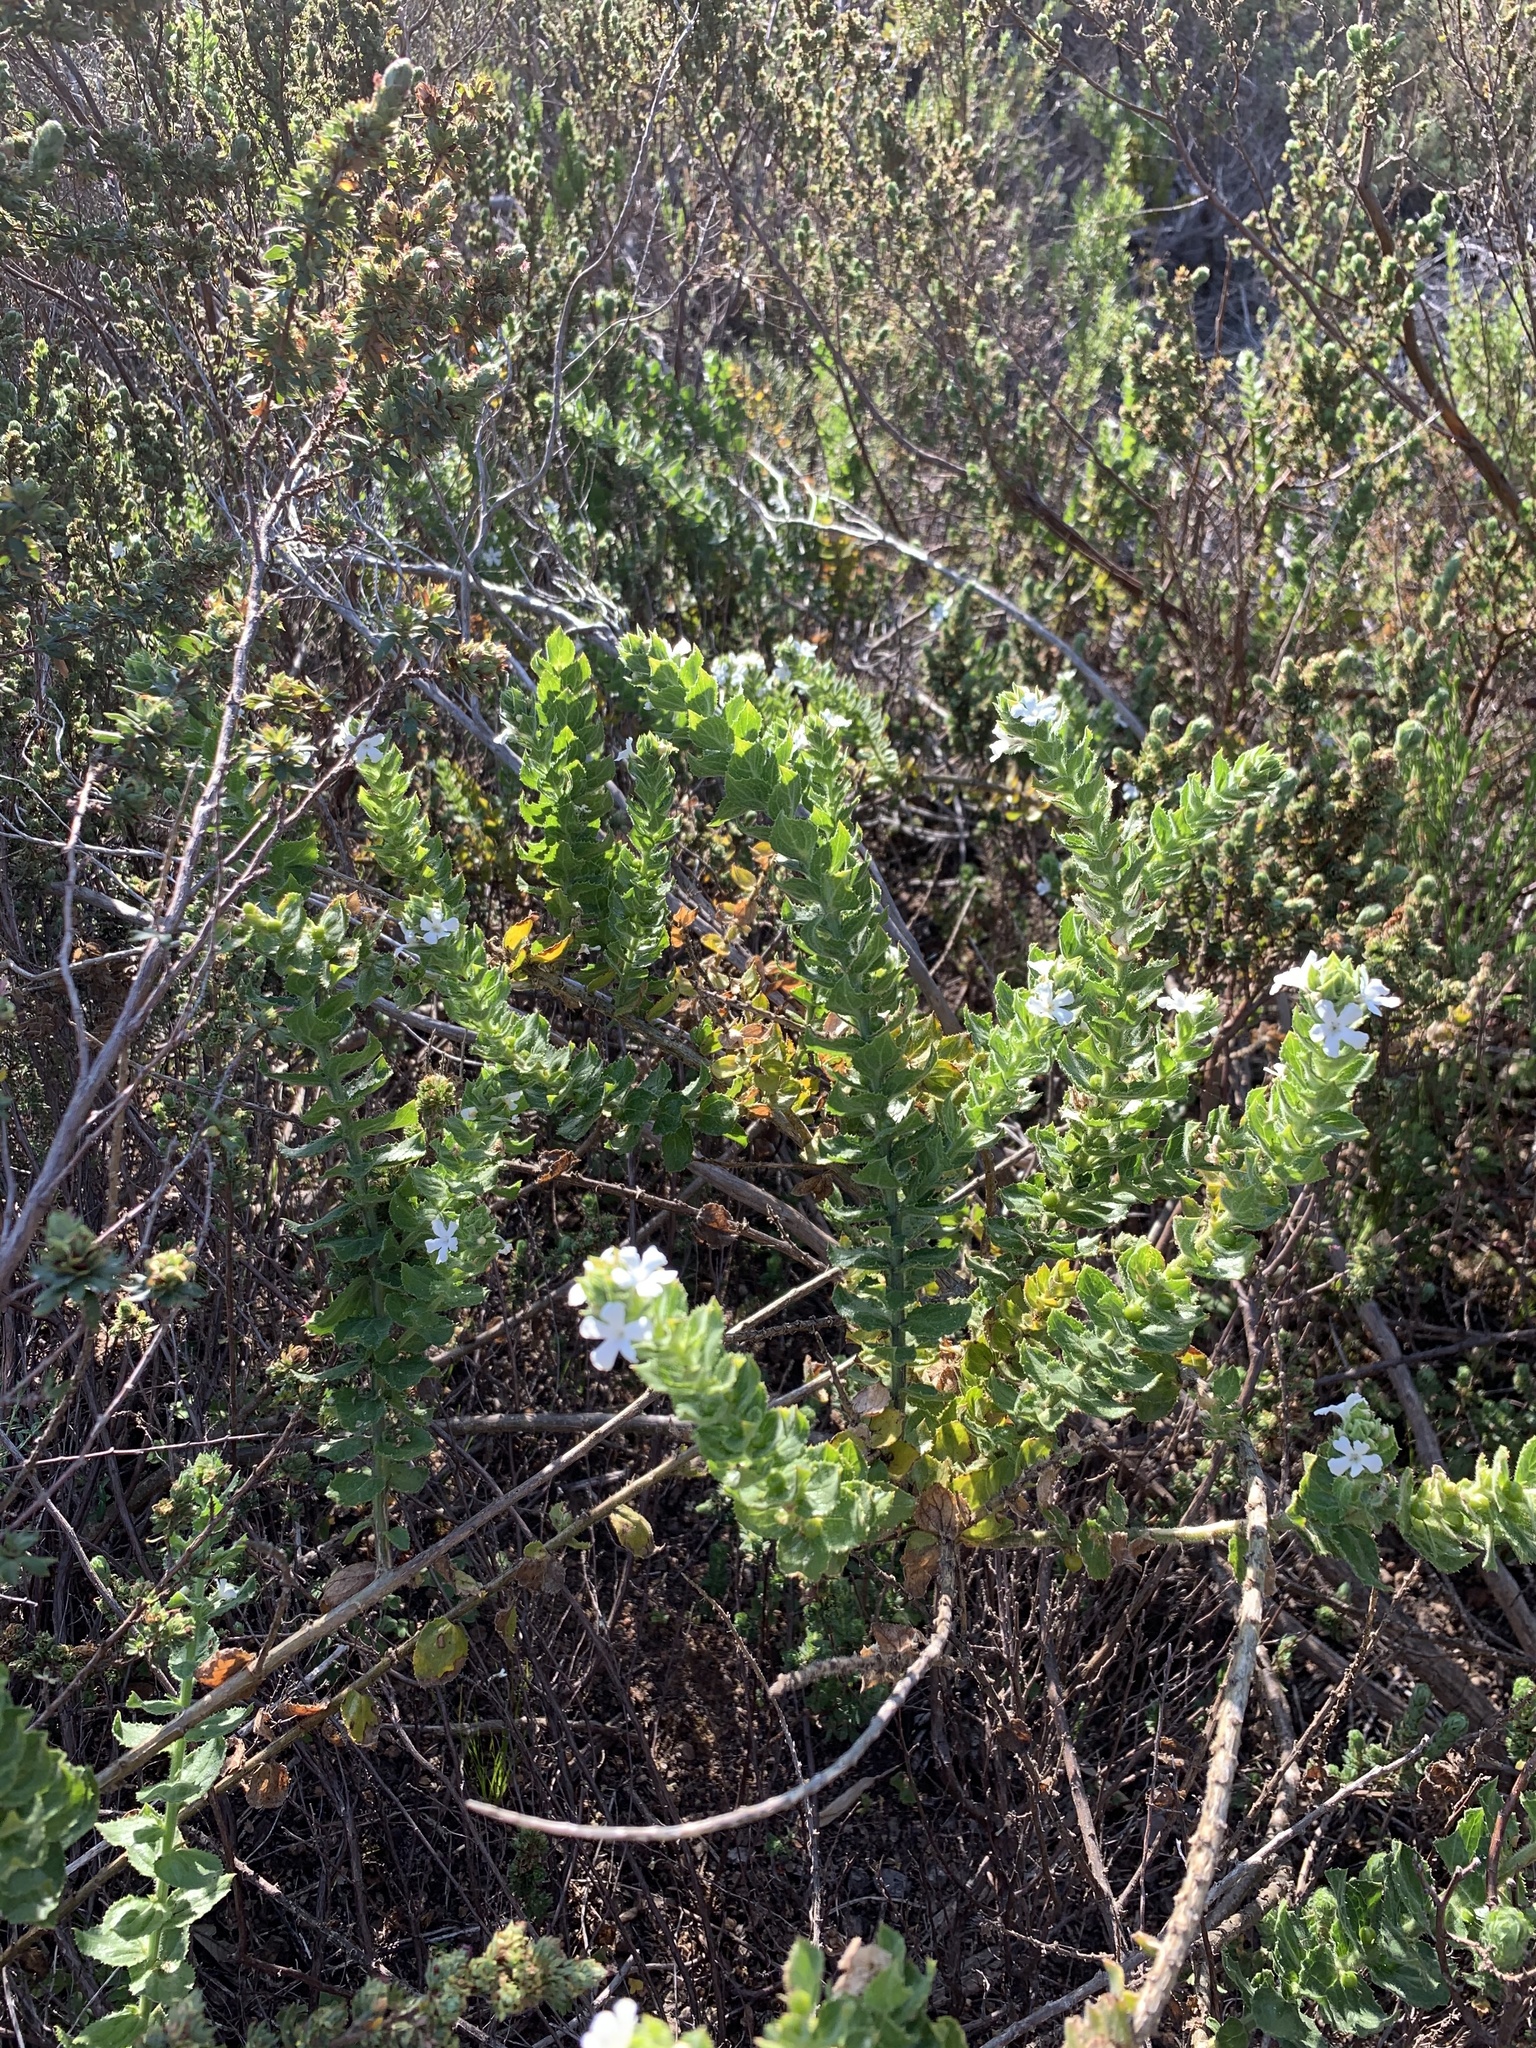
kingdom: Plantae
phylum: Tracheophyta
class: Magnoliopsida
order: Lamiales
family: Scrophulariaceae
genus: Oftia
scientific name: Oftia africana
